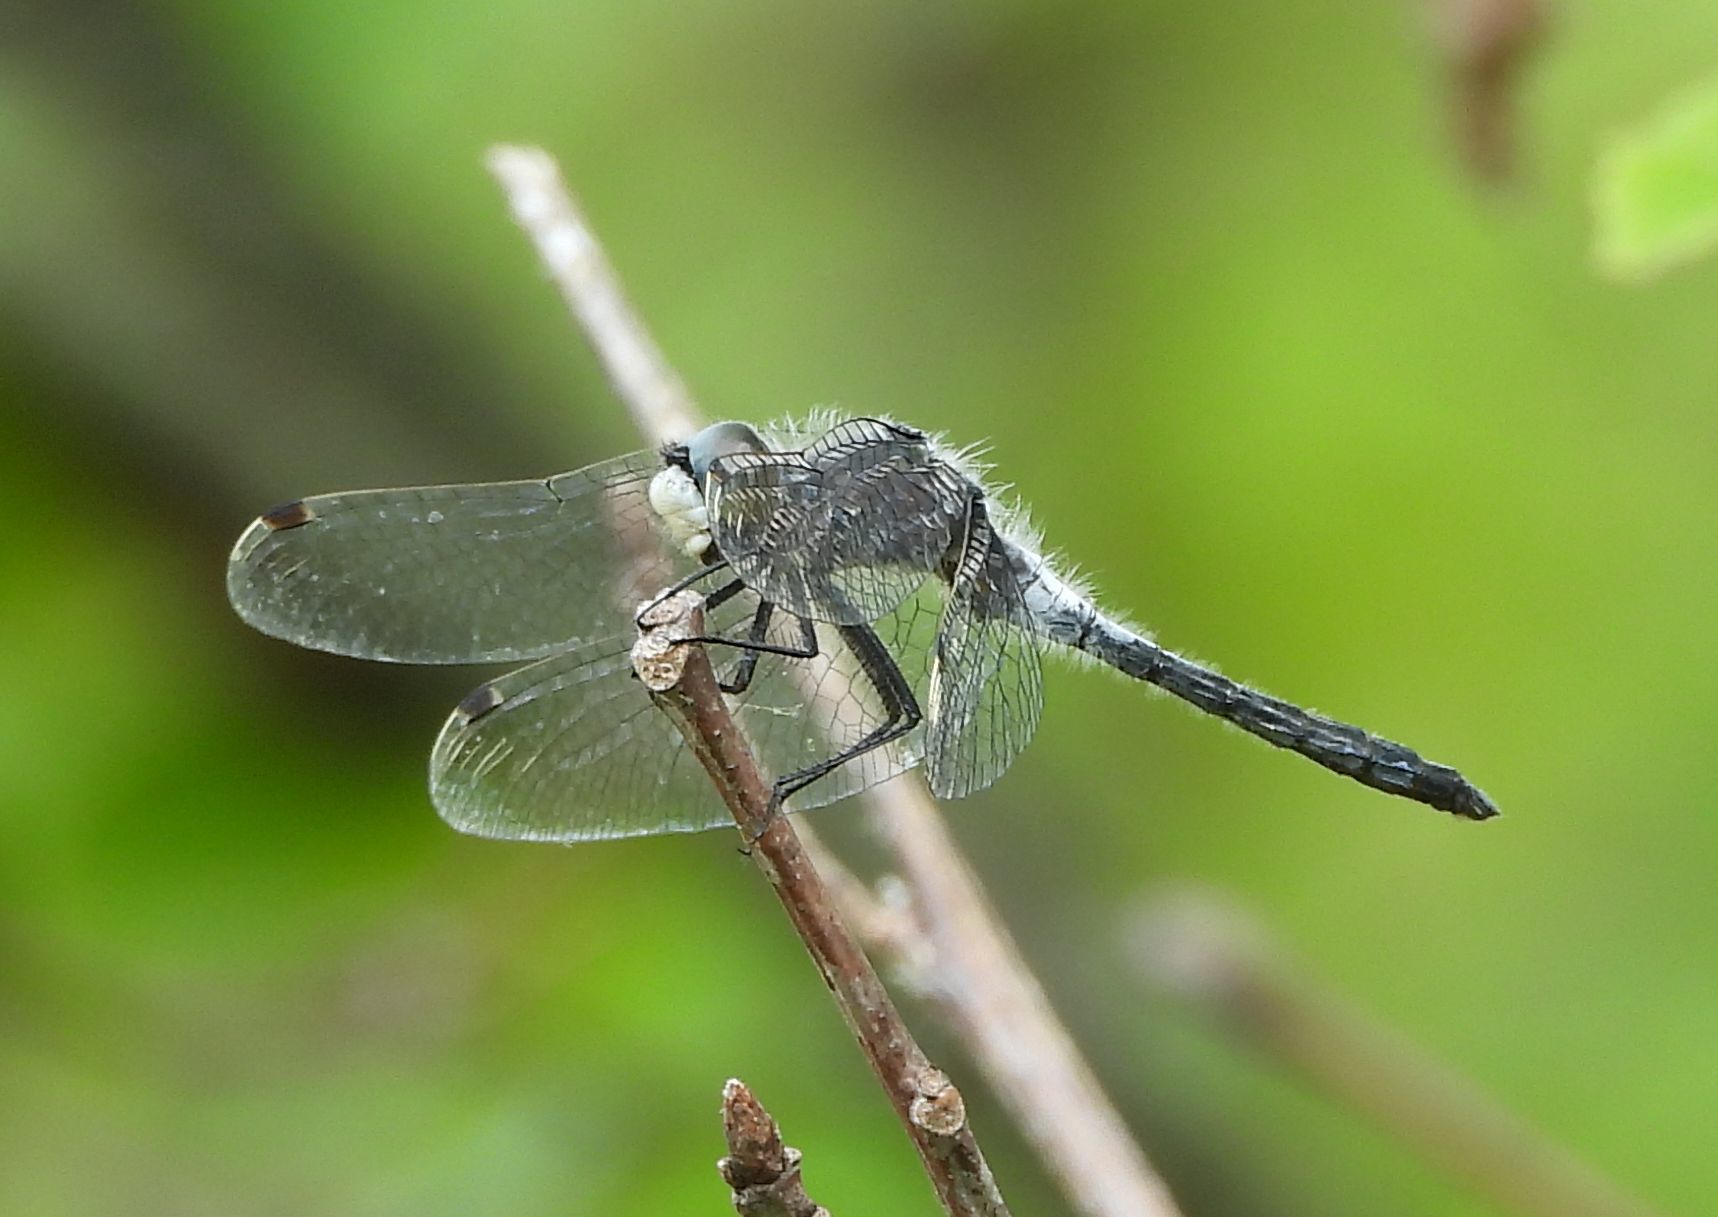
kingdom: Animalia
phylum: Arthropoda
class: Insecta
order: Odonata
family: Libellulidae
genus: Leucorrhinia
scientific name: Leucorrhinia frigida
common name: Frosted whiteface
